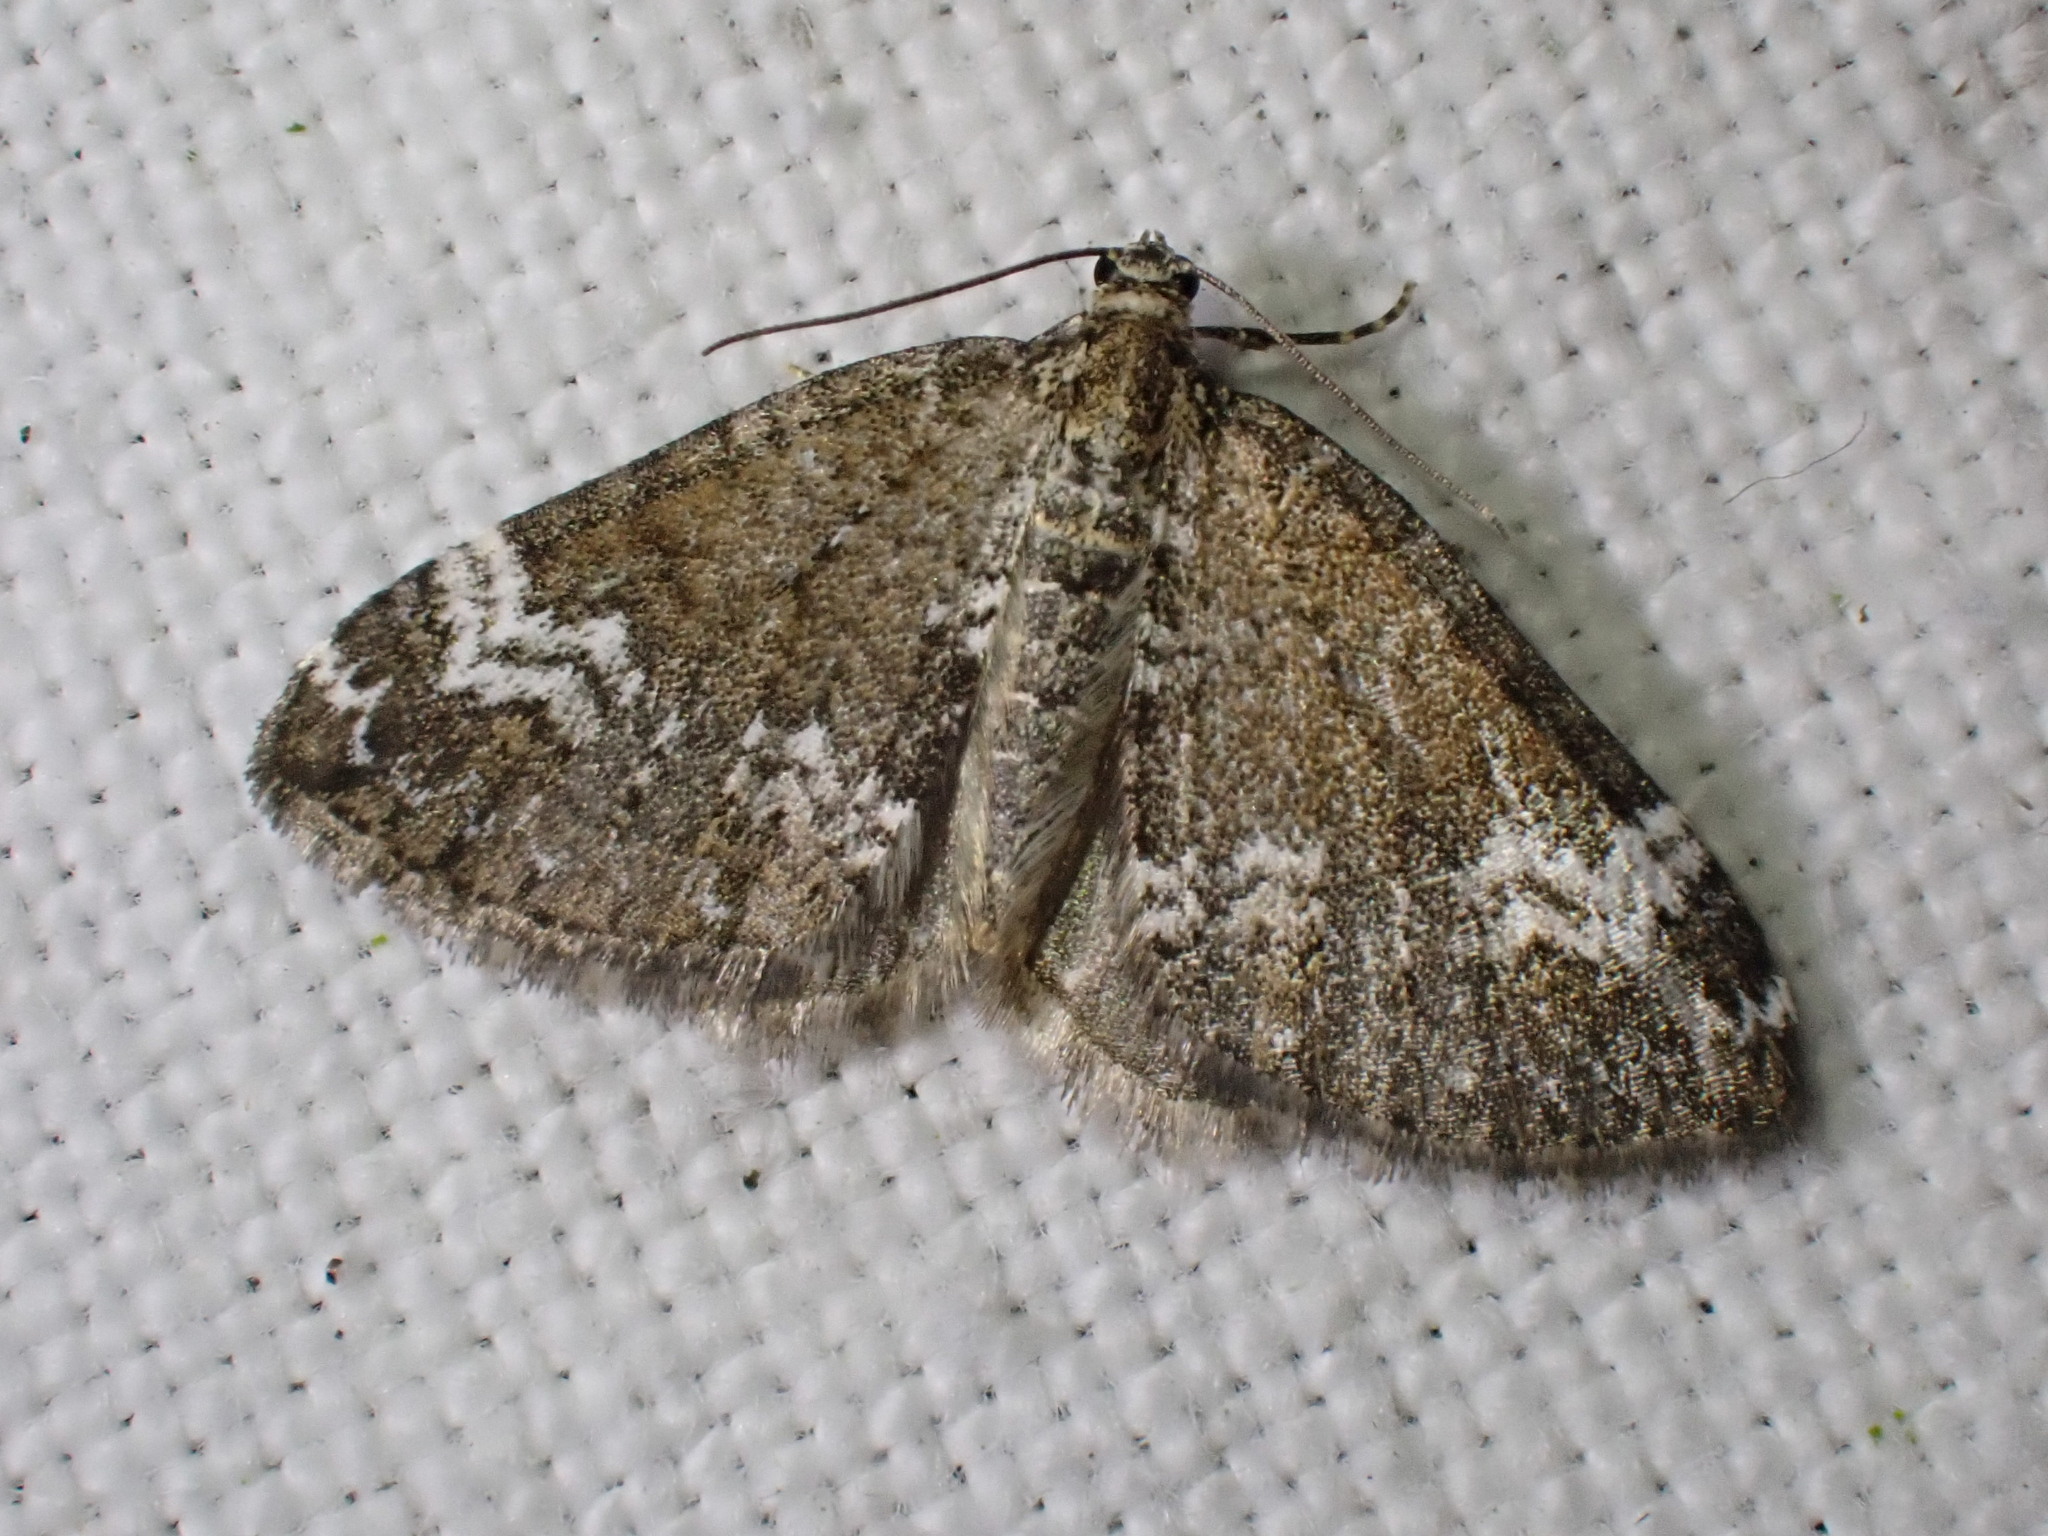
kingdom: Animalia
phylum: Arthropoda
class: Insecta
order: Lepidoptera
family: Geometridae
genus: Perizoma
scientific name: Perizoma alchemillata
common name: Small rivulet
